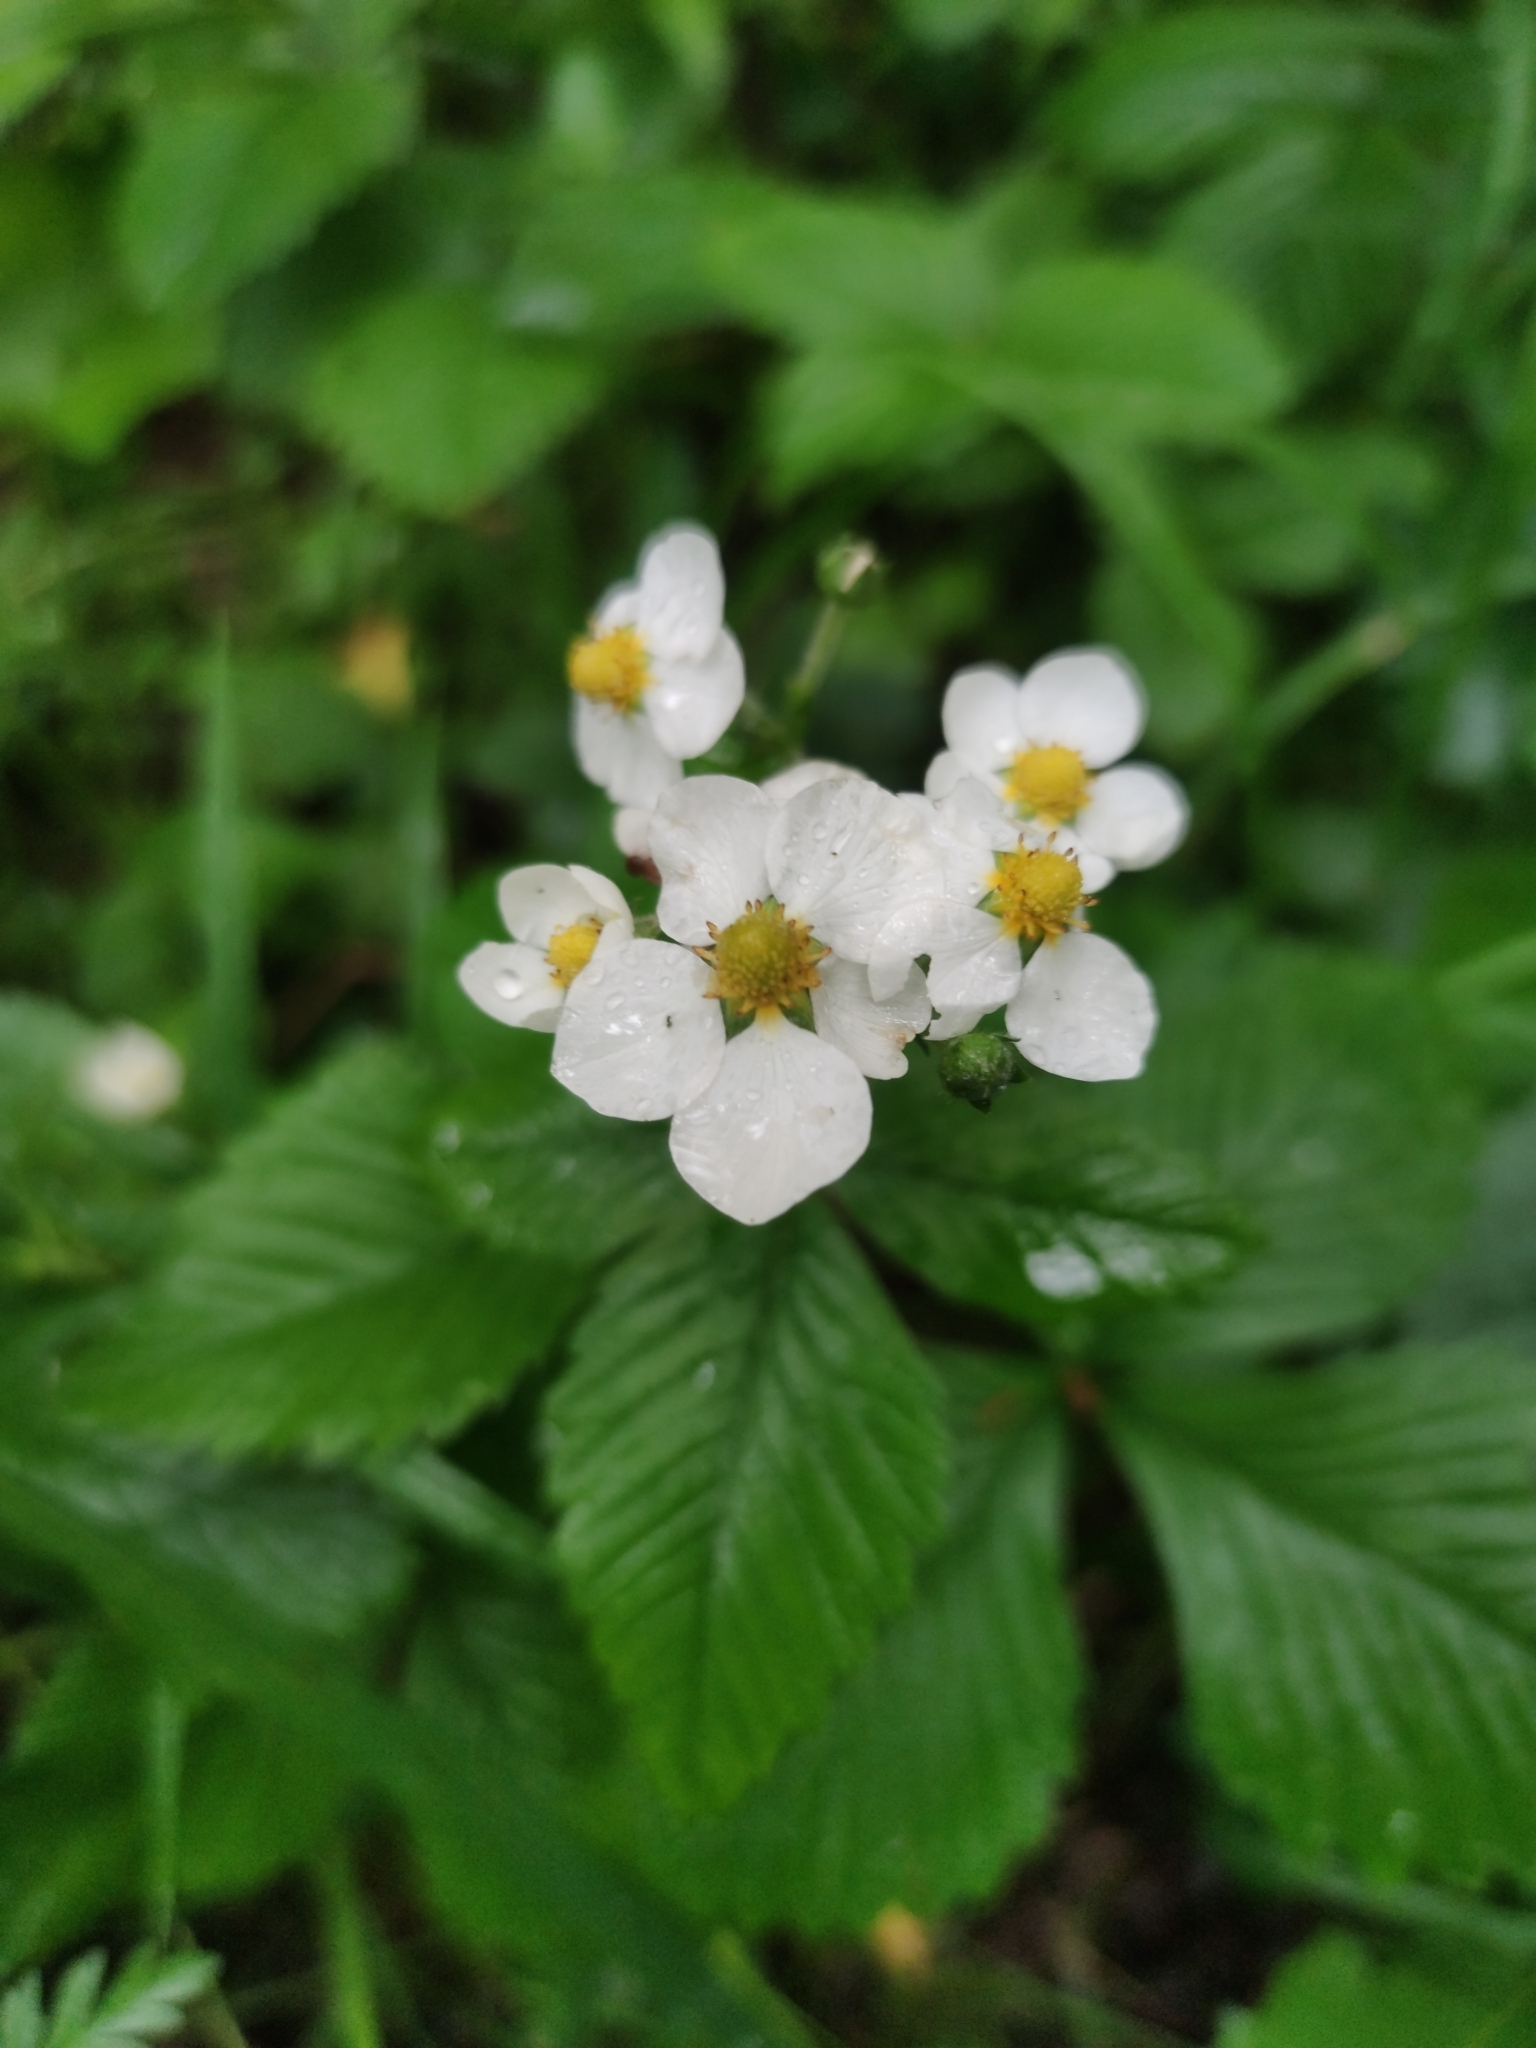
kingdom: Plantae
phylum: Tracheophyta
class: Magnoliopsida
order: Rosales
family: Rosaceae
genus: Fragaria
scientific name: Fragaria moschata
